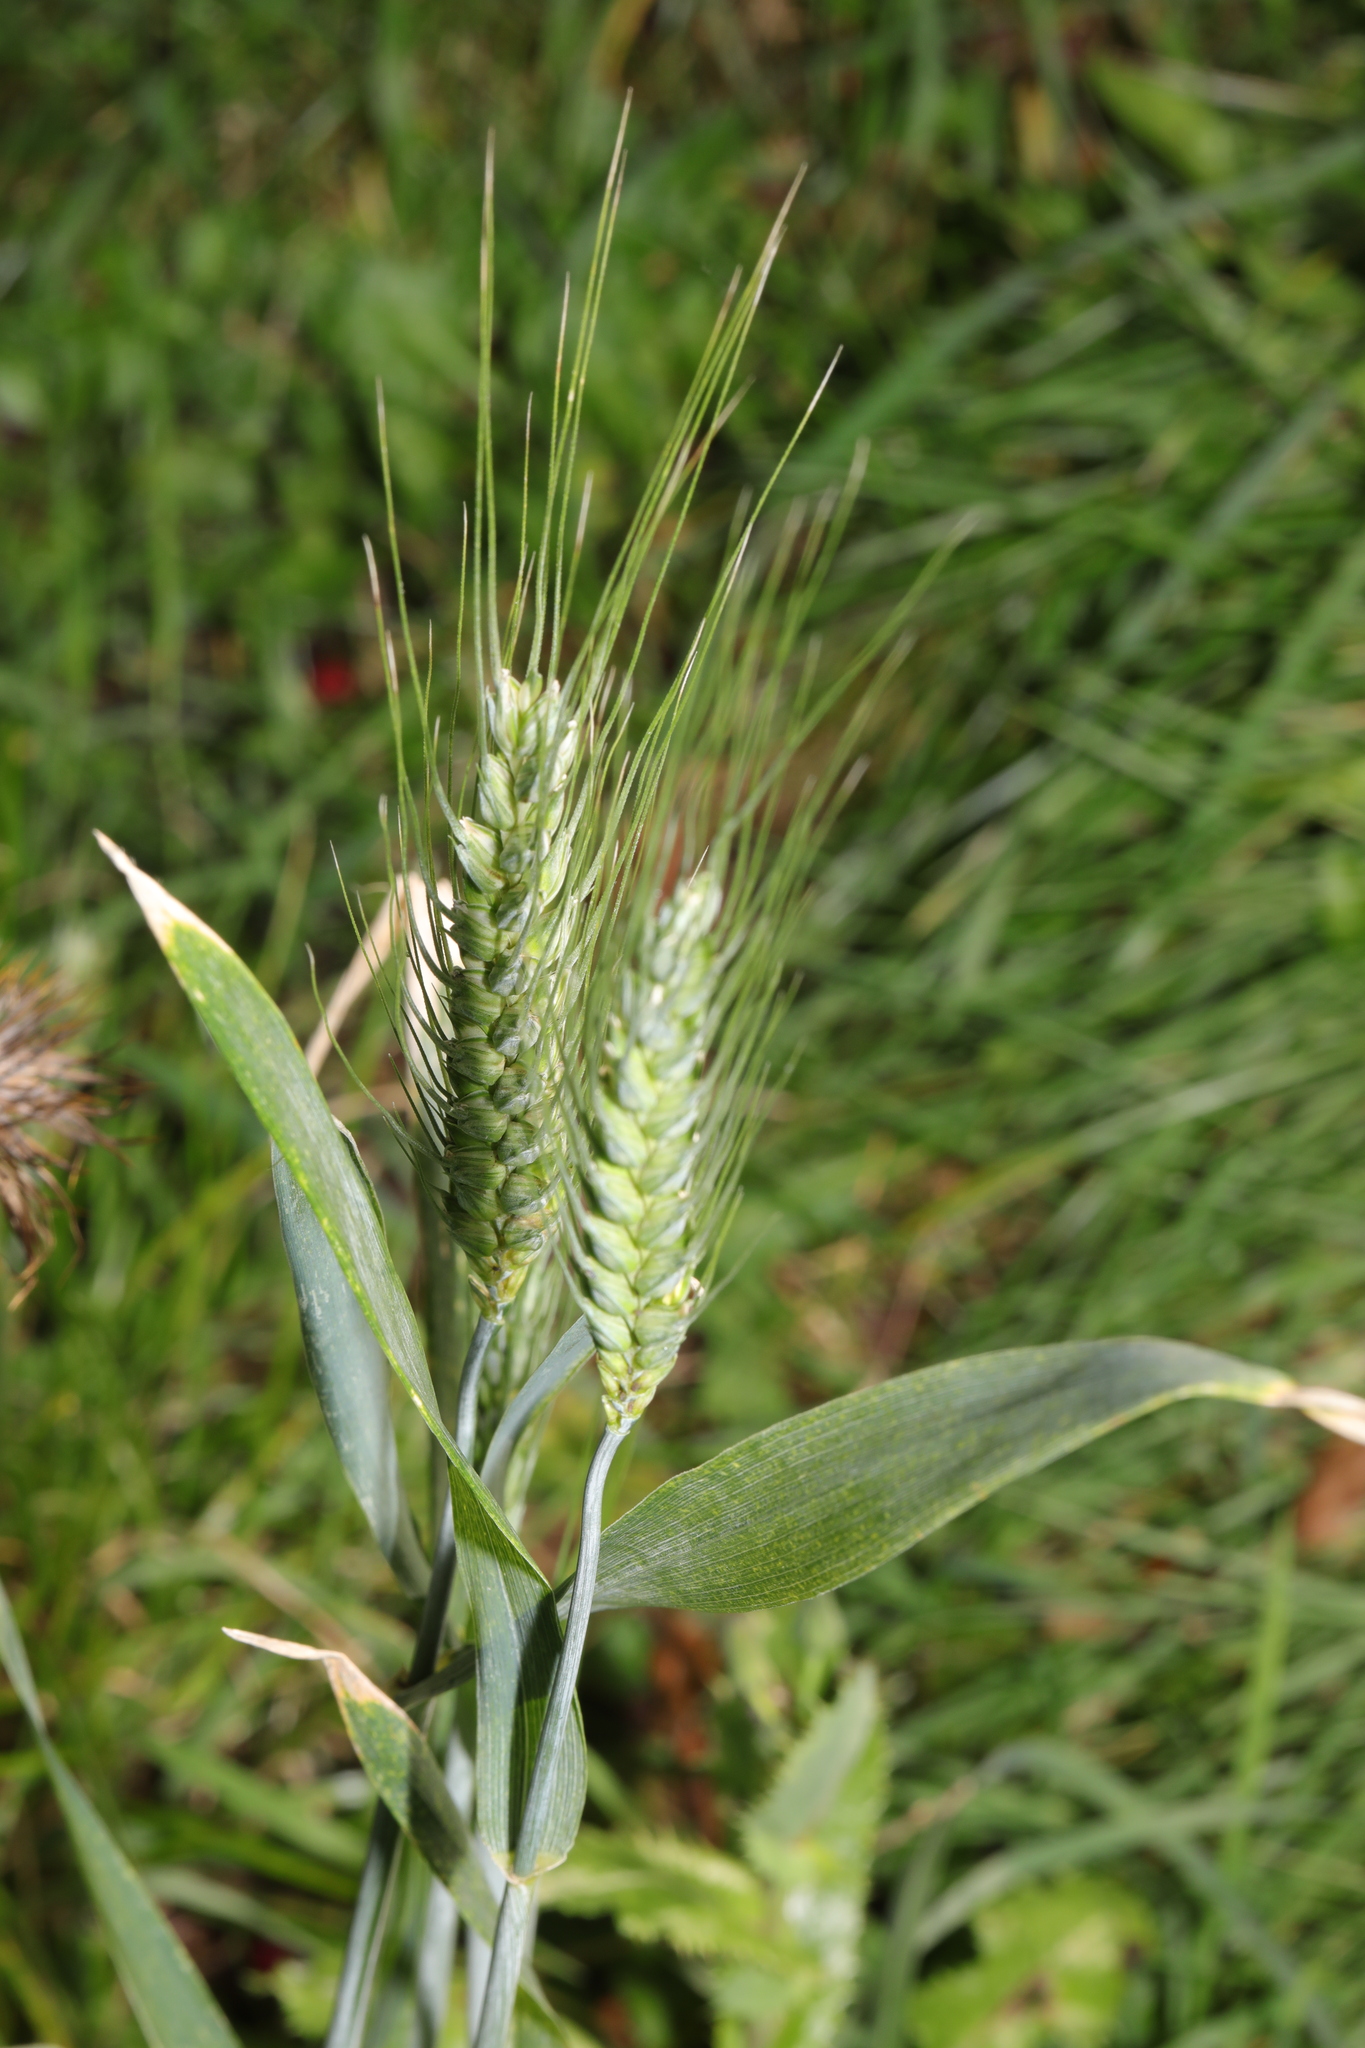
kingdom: Plantae
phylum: Tracheophyta
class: Liliopsida
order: Poales
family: Poaceae
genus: Triticum
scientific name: Triticum aestivum
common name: Common wheat
